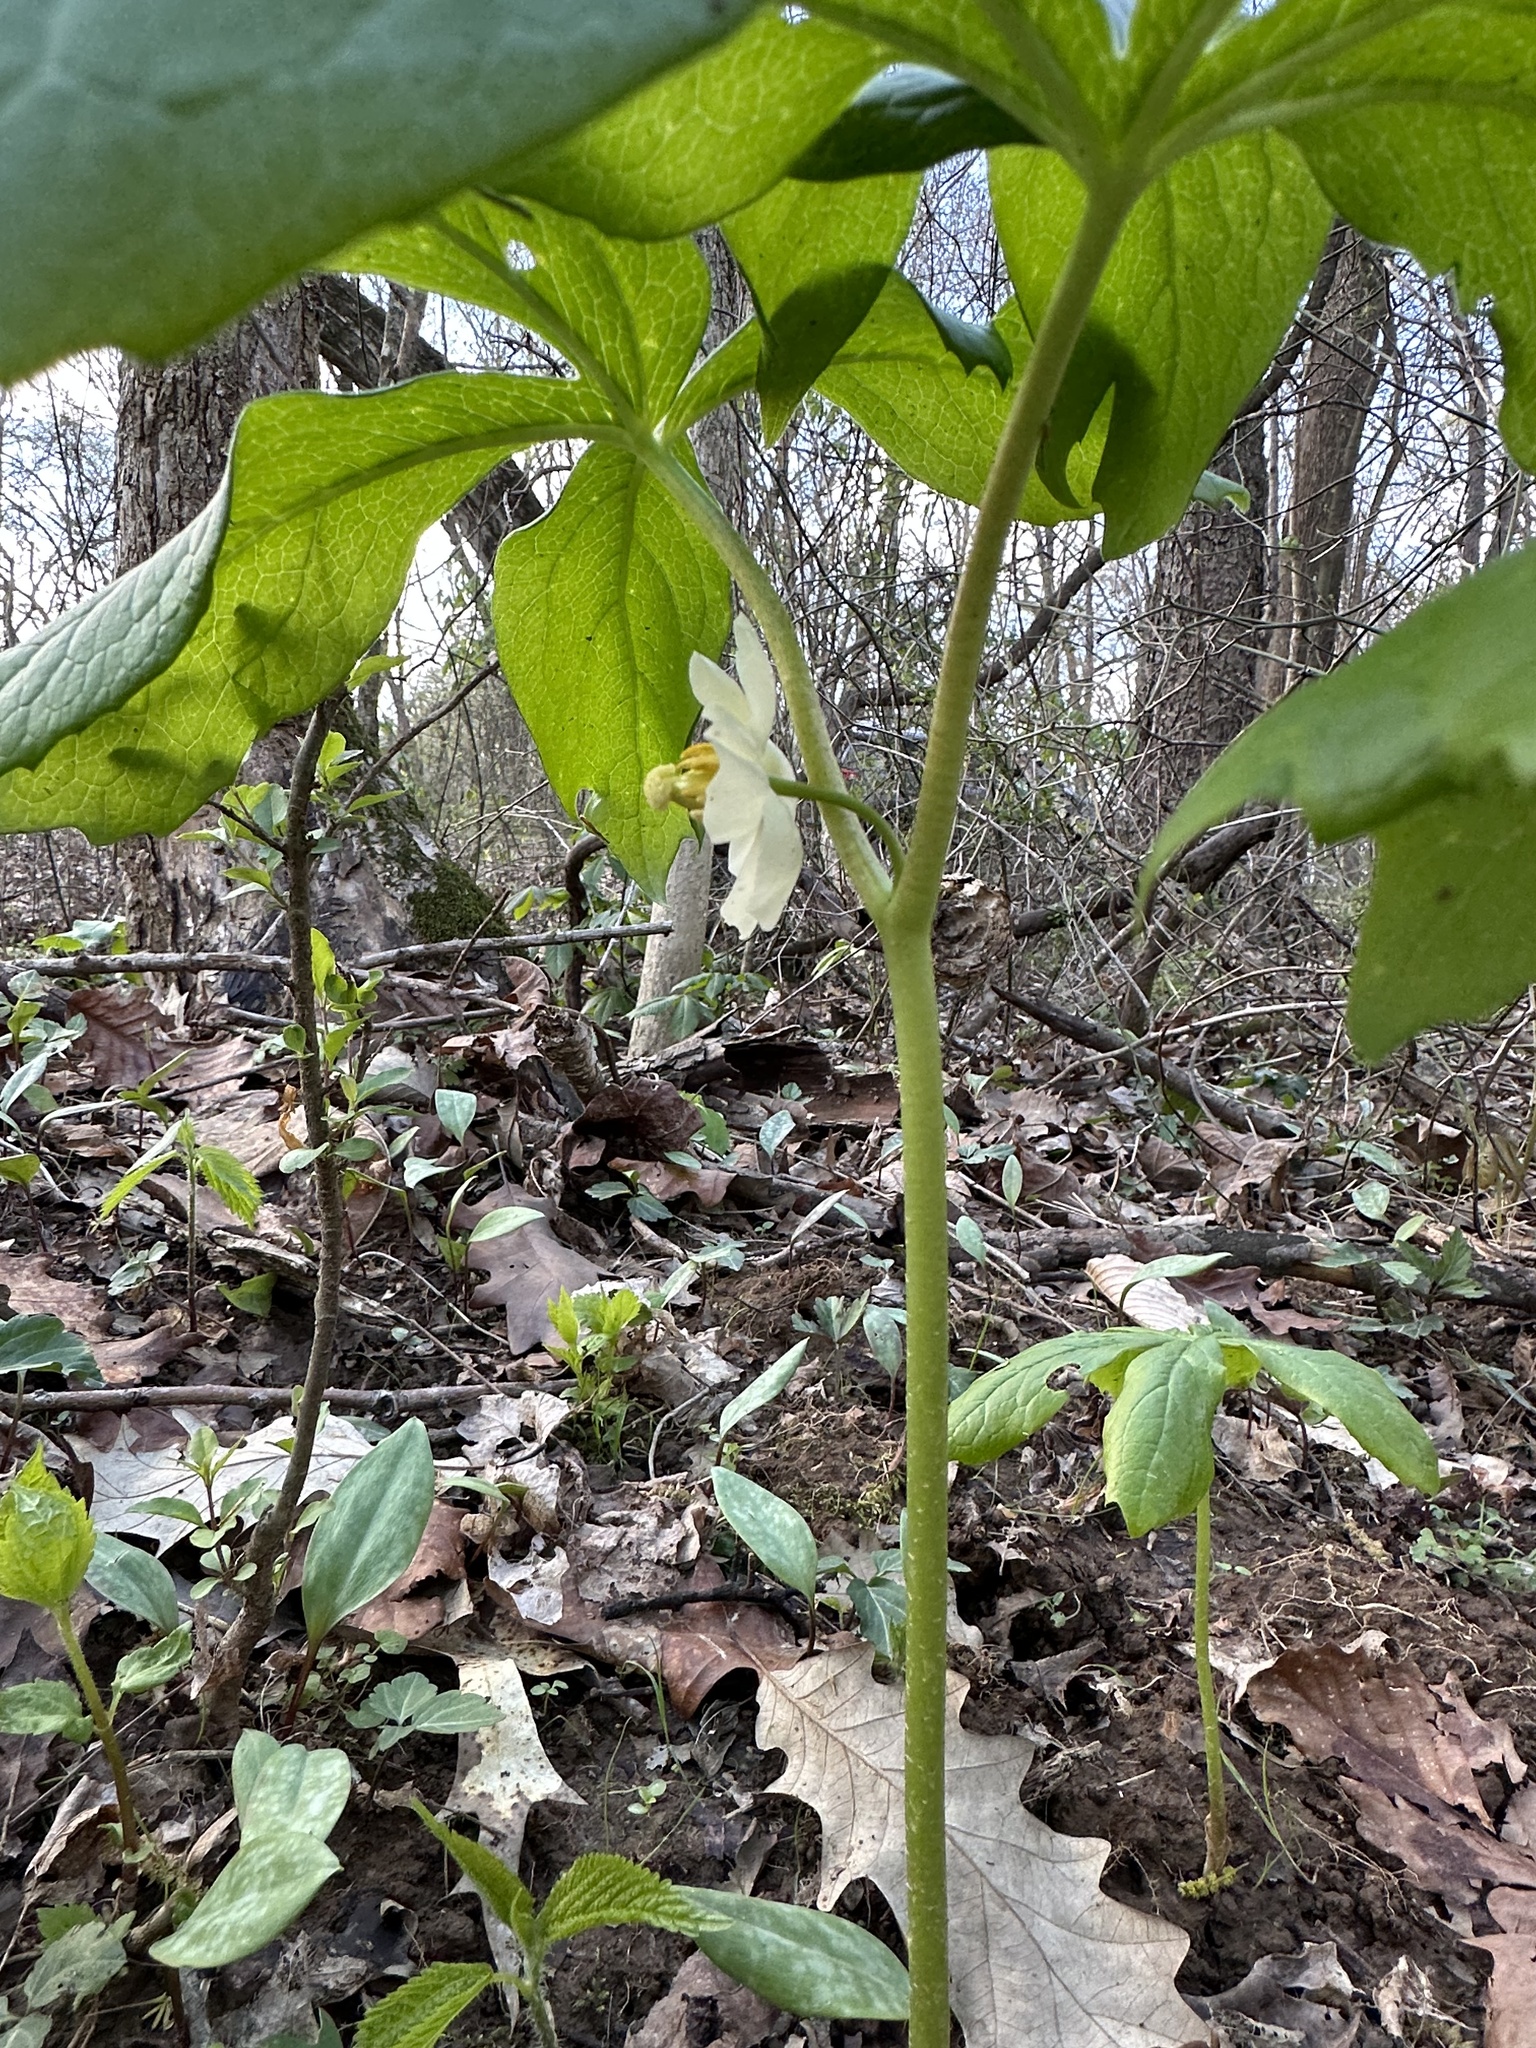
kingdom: Plantae
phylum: Tracheophyta
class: Magnoliopsida
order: Ranunculales
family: Berberidaceae
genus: Podophyllum
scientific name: Podophyllum peltatum
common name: Wild mandrake
